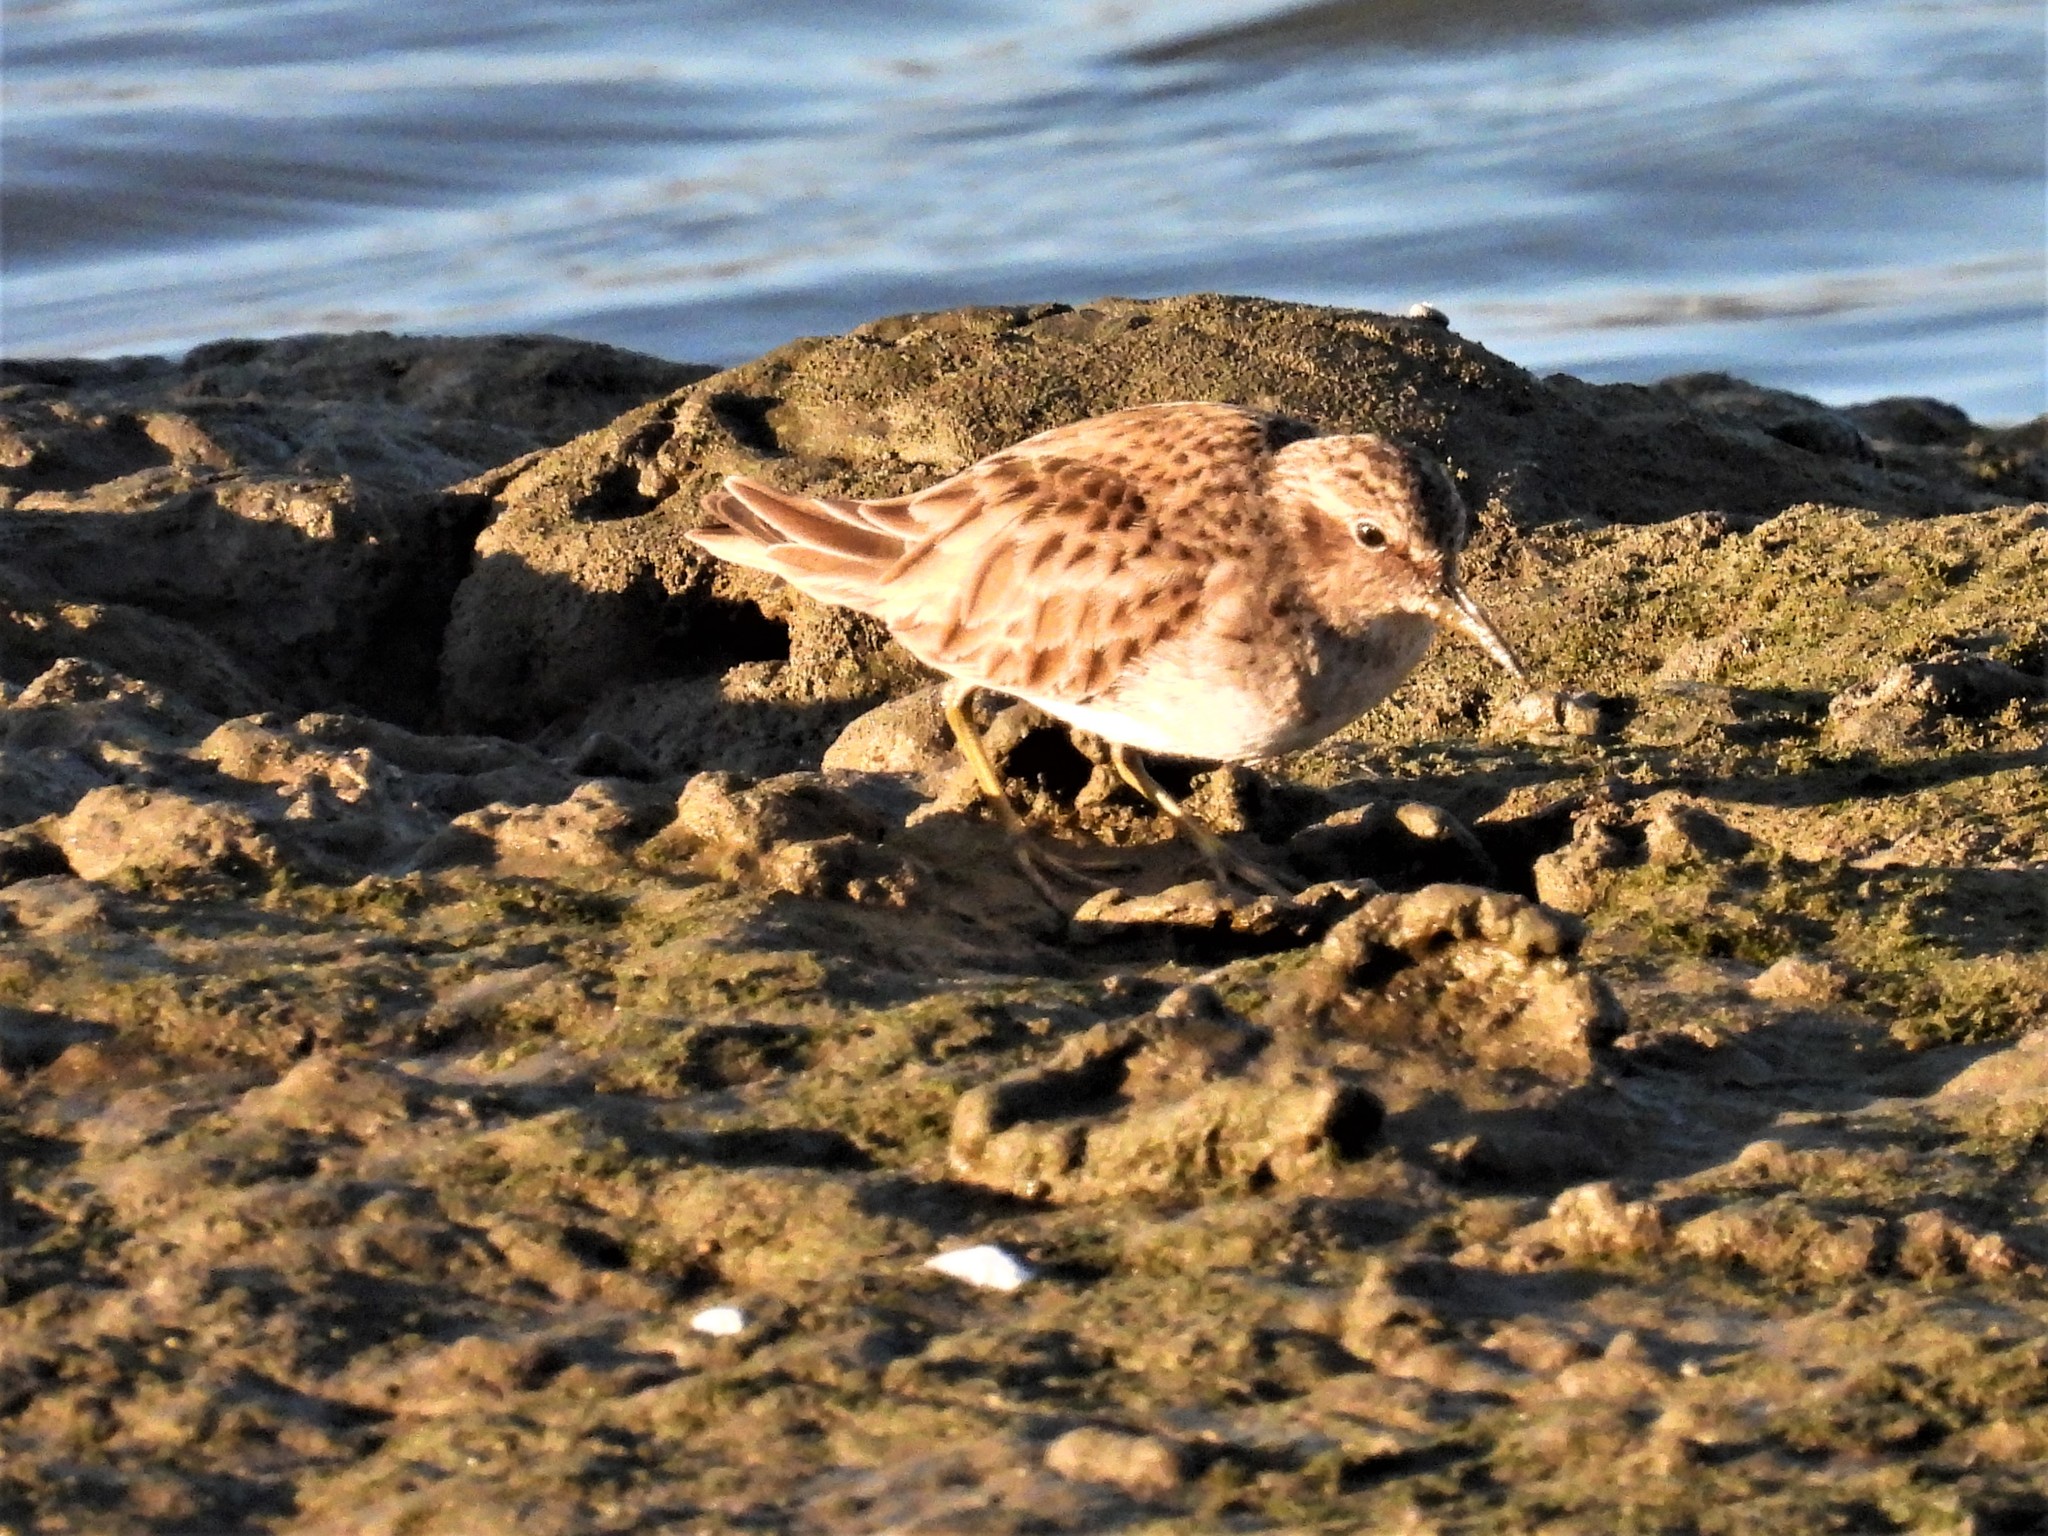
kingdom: Animalia
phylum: Chordata
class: Aves
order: Charadriiformes
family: Scolopacidae
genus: Calidris
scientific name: Calidris minutilla
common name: Least sandpiper
